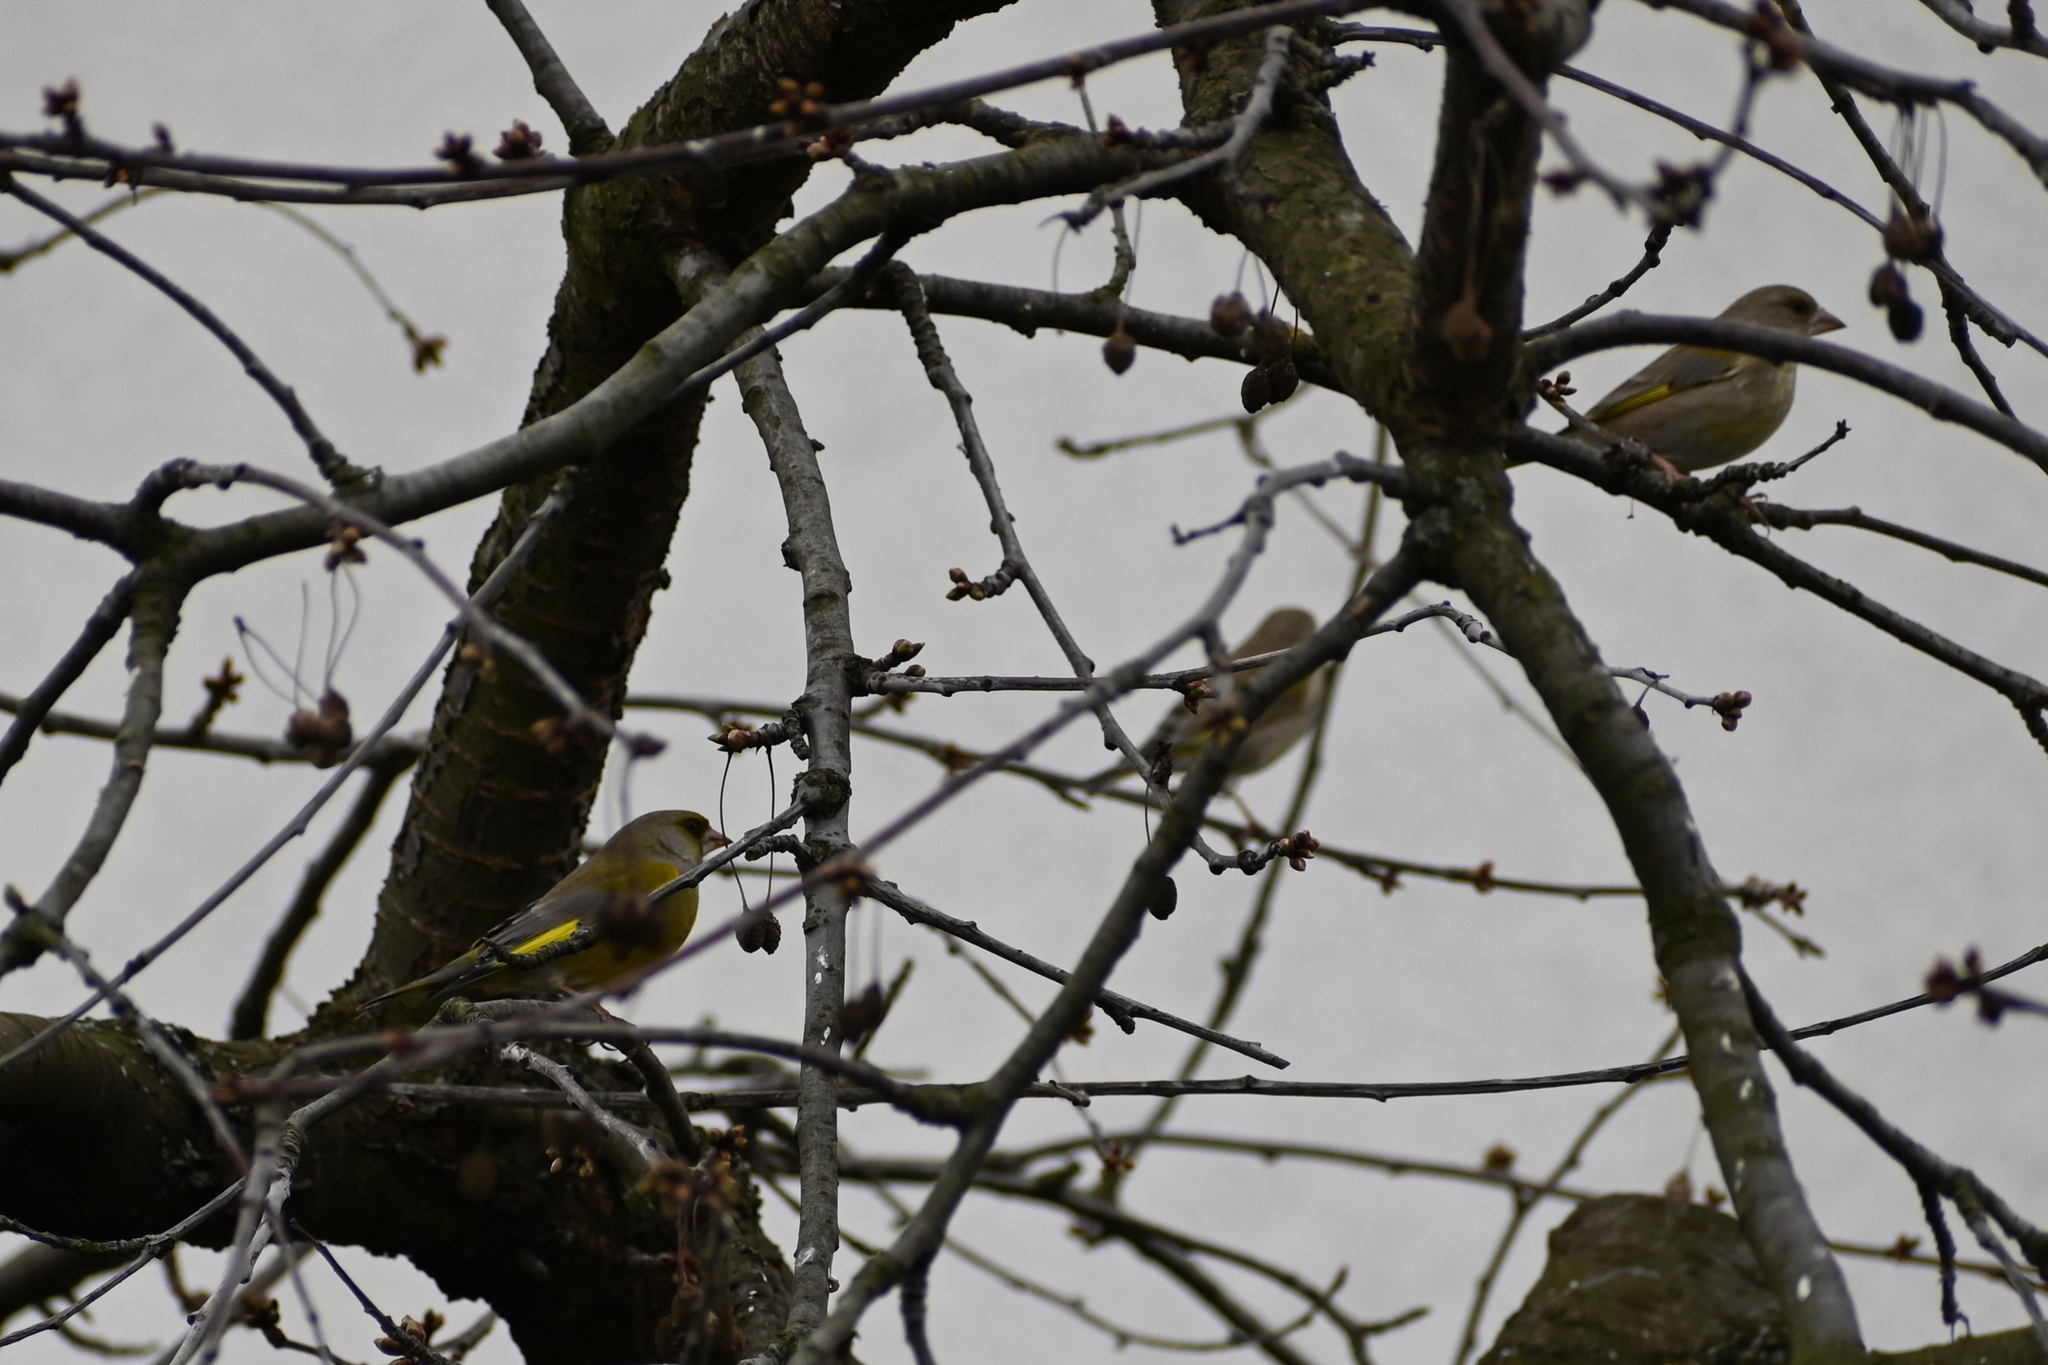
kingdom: Plantae
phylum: Tracheophyta
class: Liliopsida
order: Poales
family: Poaceae
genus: Chloris
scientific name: Chloris chloris
